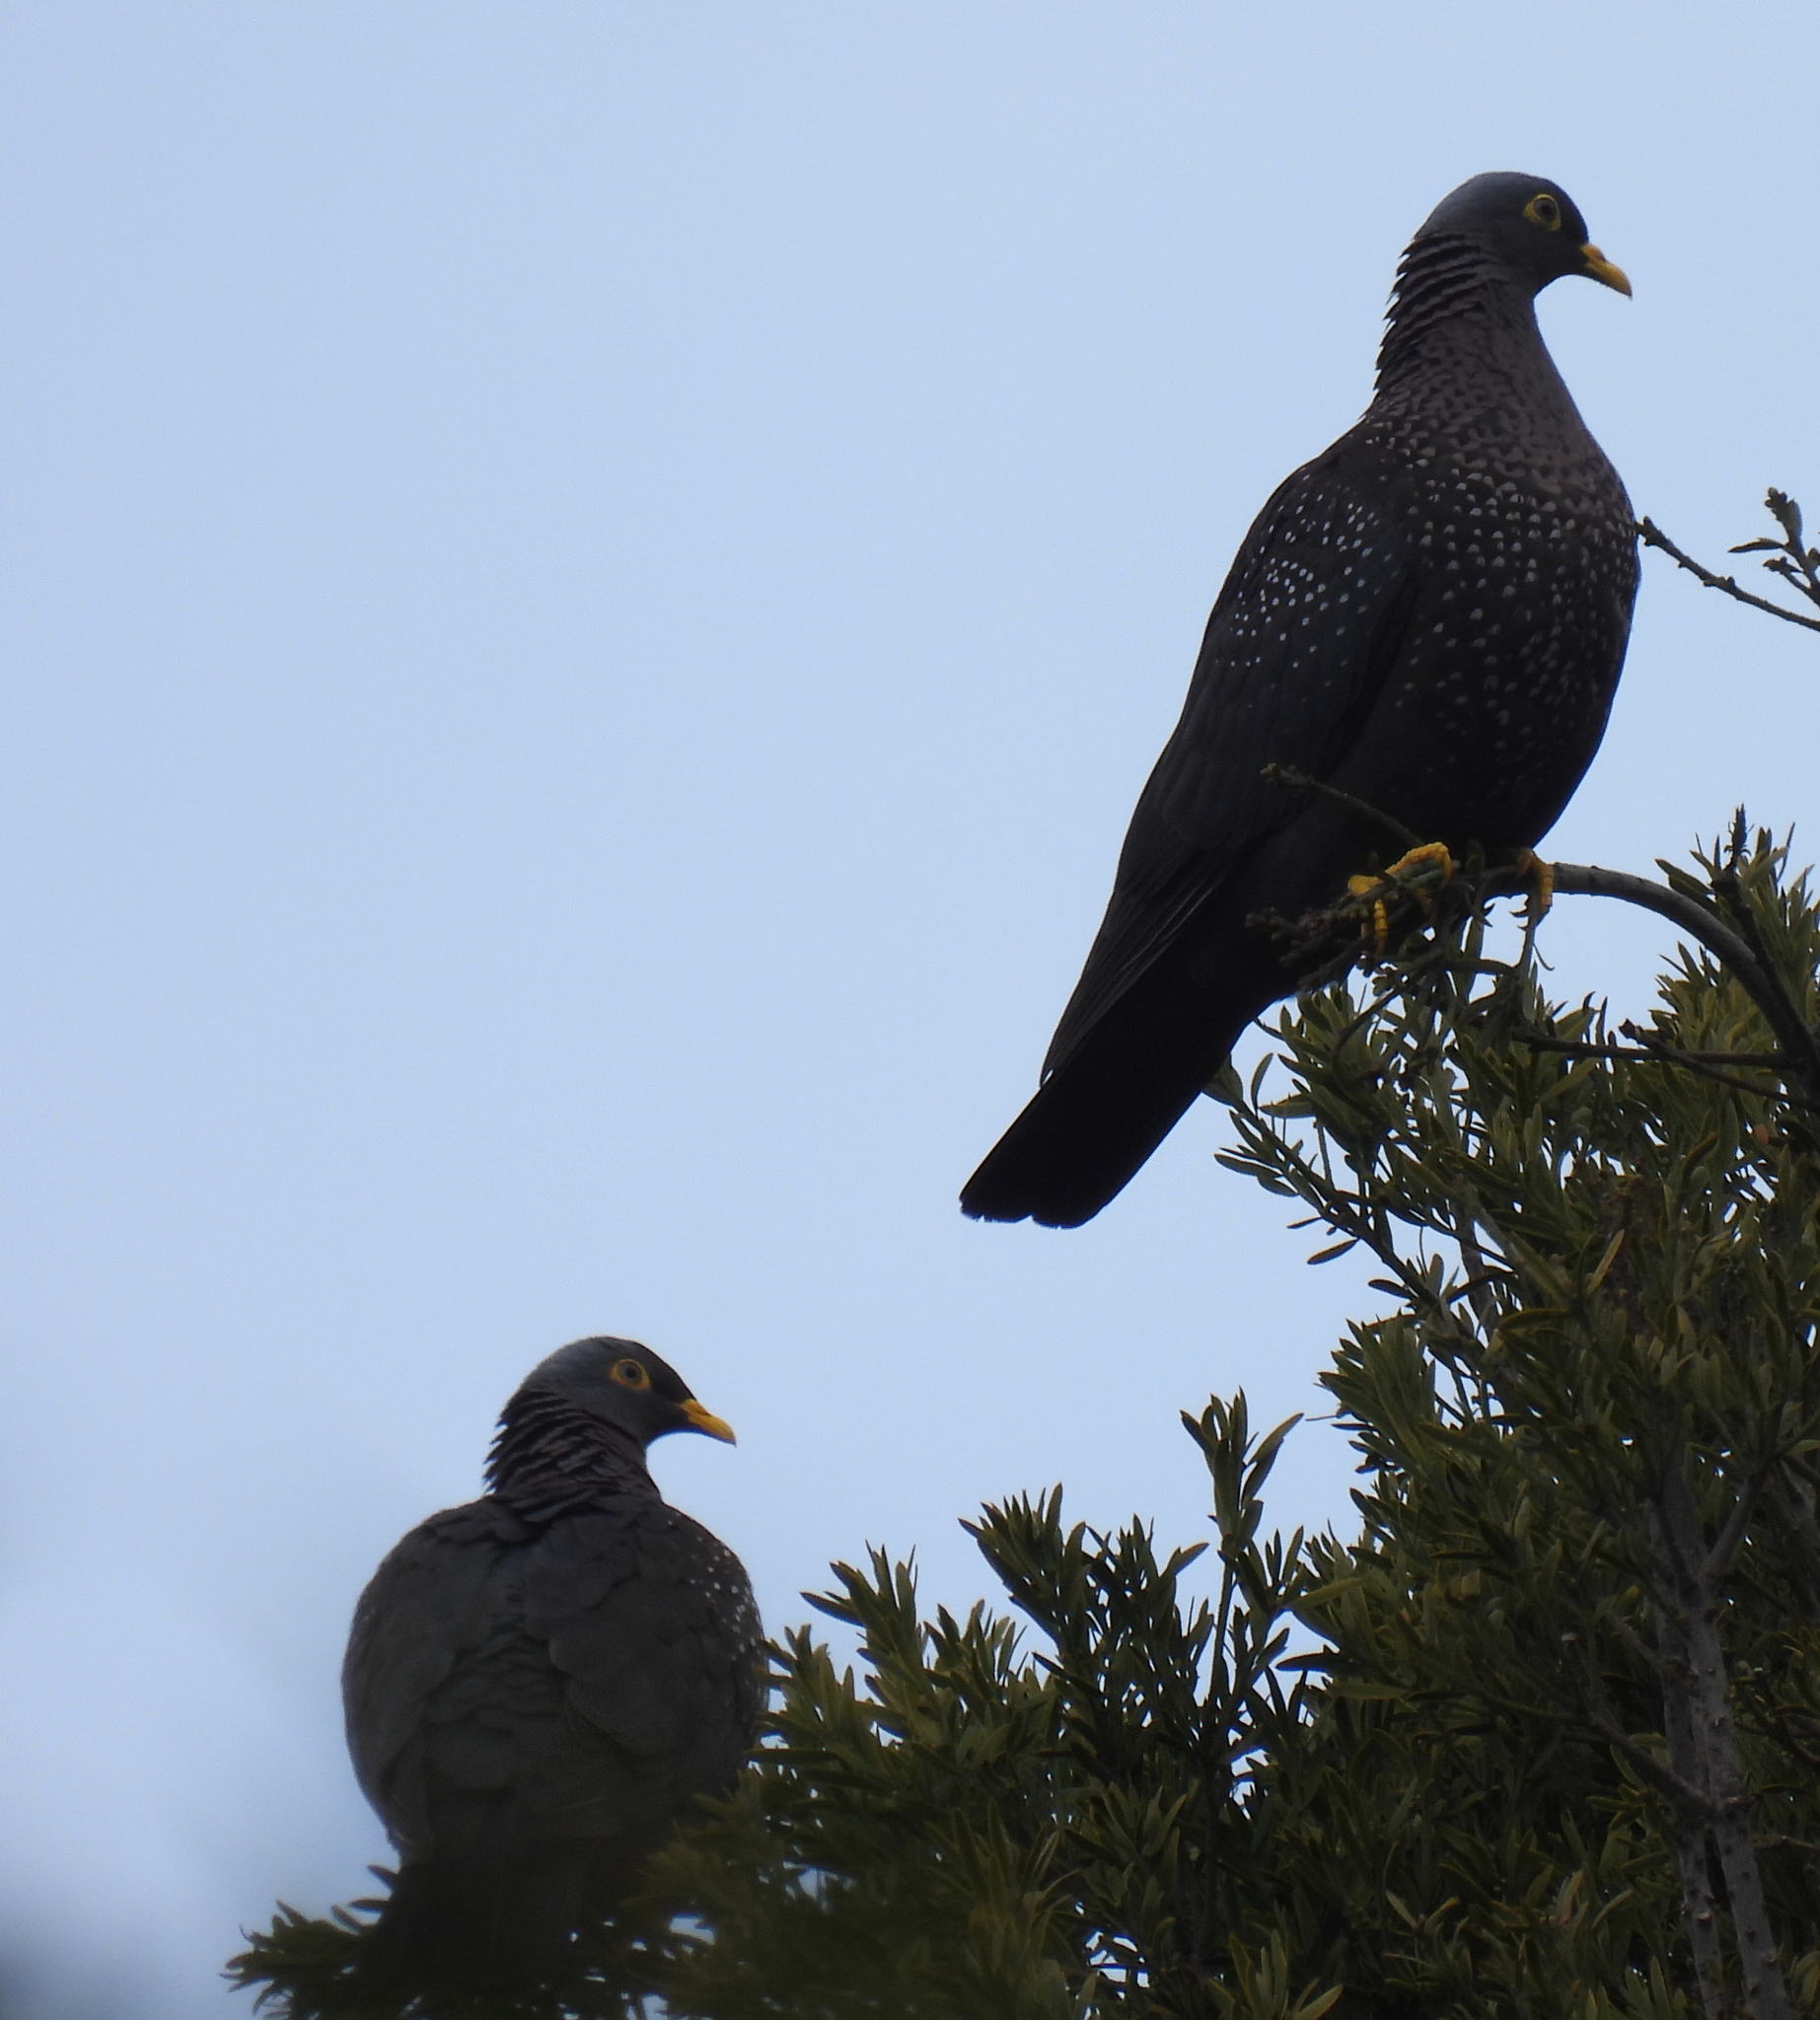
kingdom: Animalia
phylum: Chordata
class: Aves
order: Columbiformes
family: Columbidae
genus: Columba
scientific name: Columba arquatrix
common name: African olive pigeon
